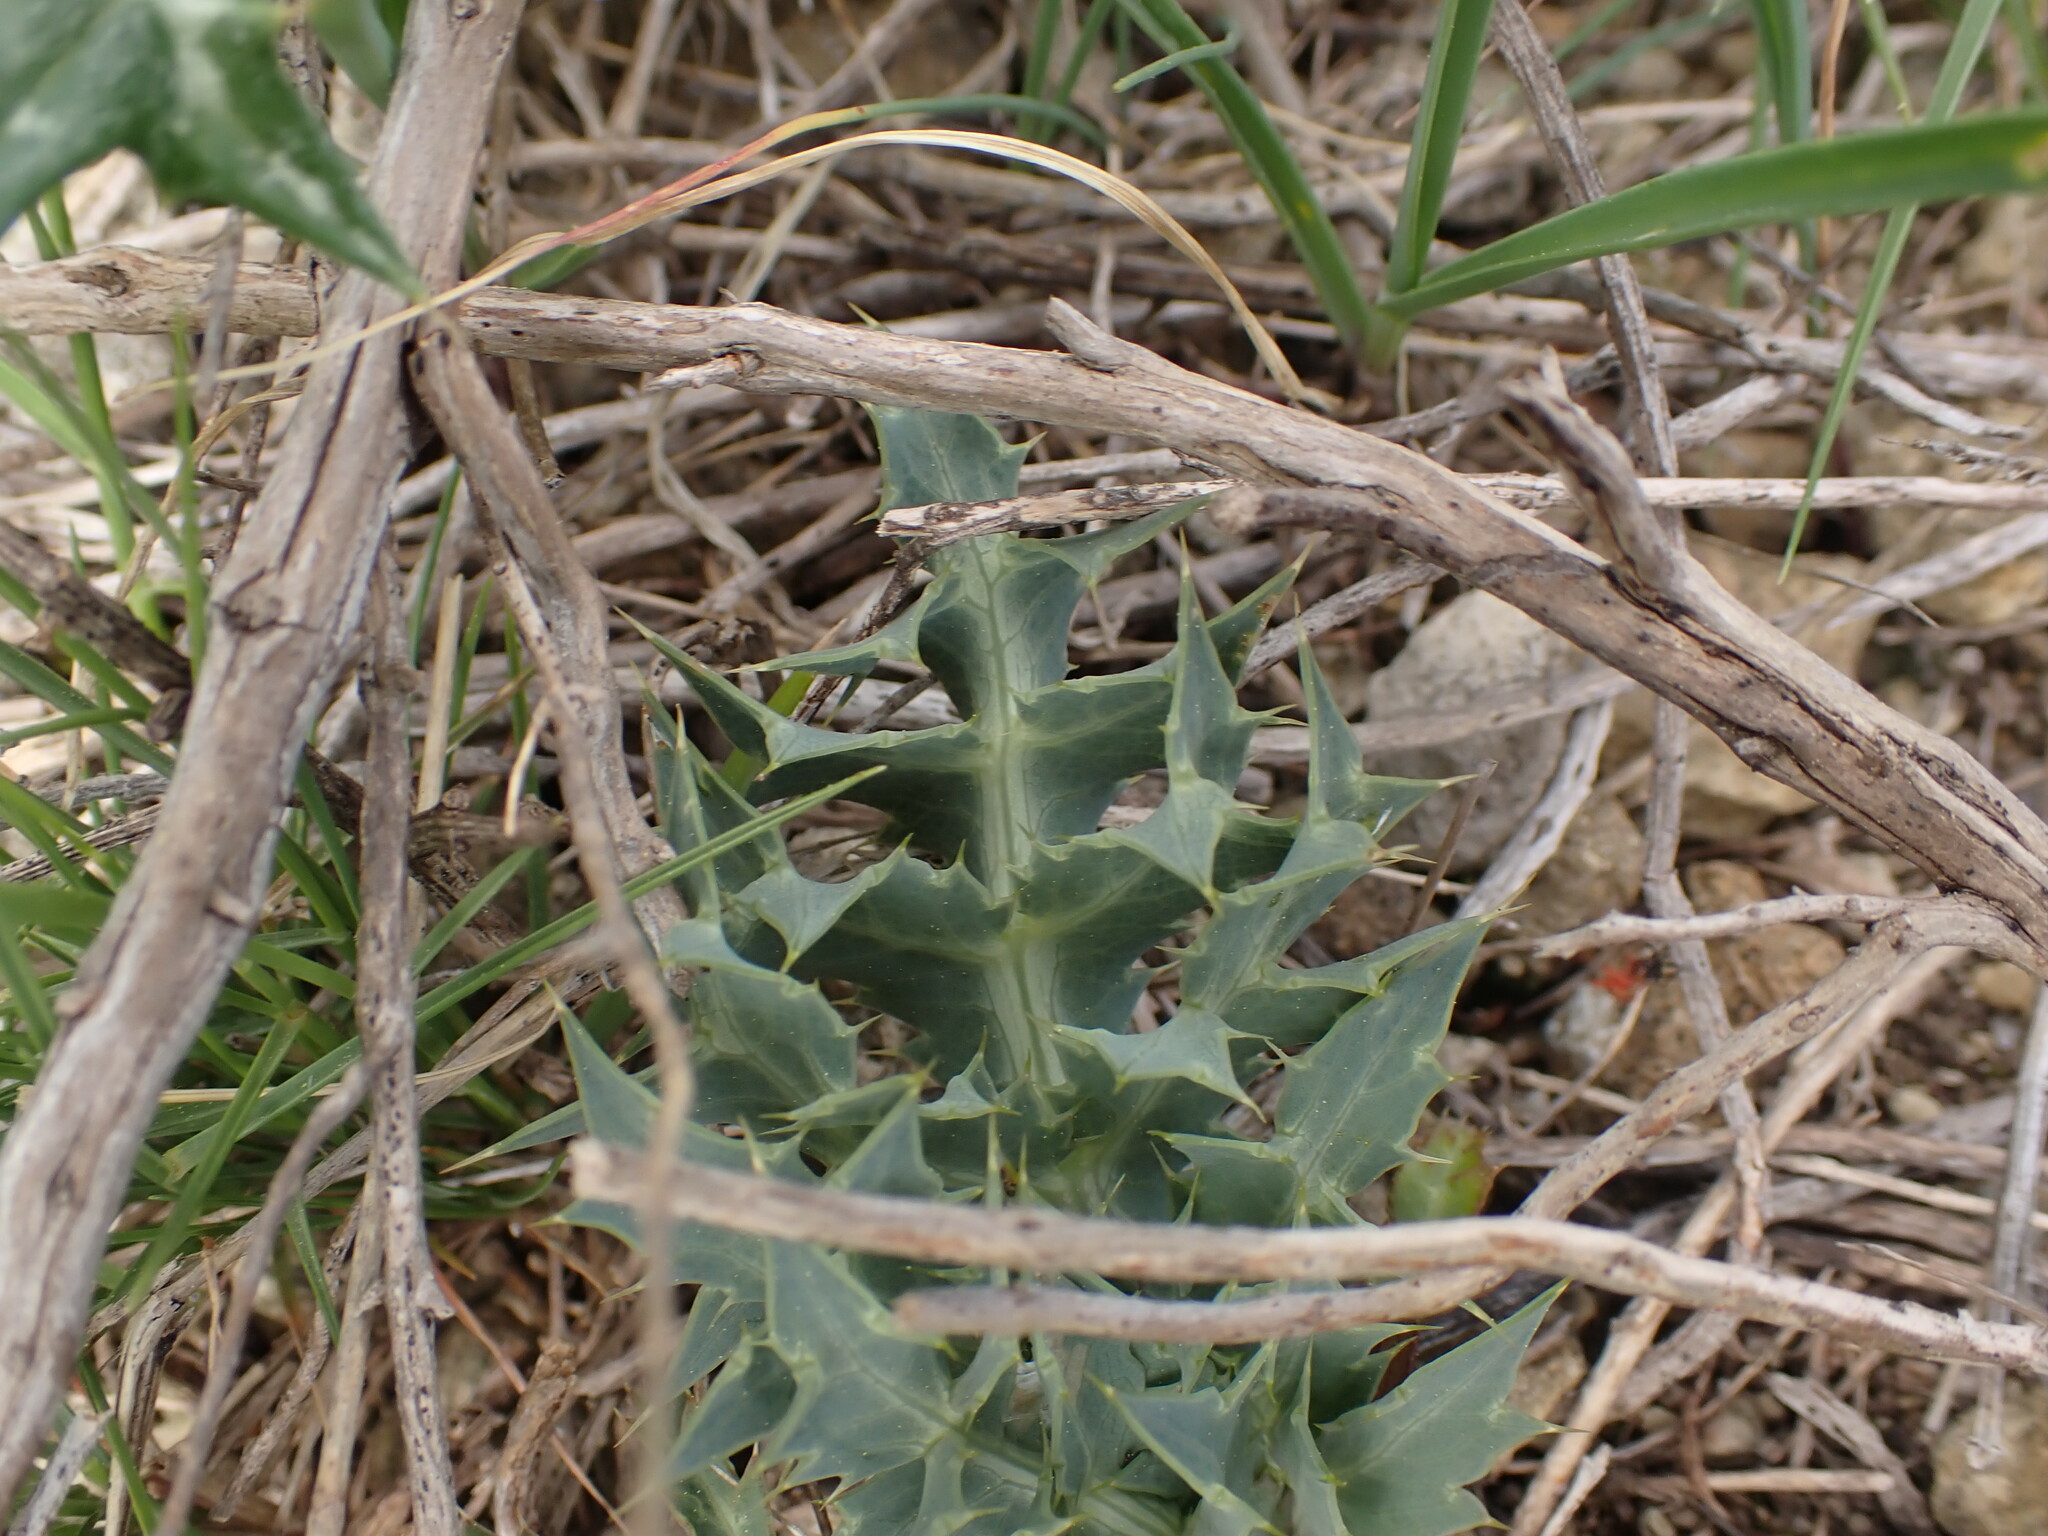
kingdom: Plantae
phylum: Tracheophyta
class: Magnoliopsida
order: Apiales
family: Apiaceae
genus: Eryngium
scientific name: Eryngium campestre
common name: Field eryngo
